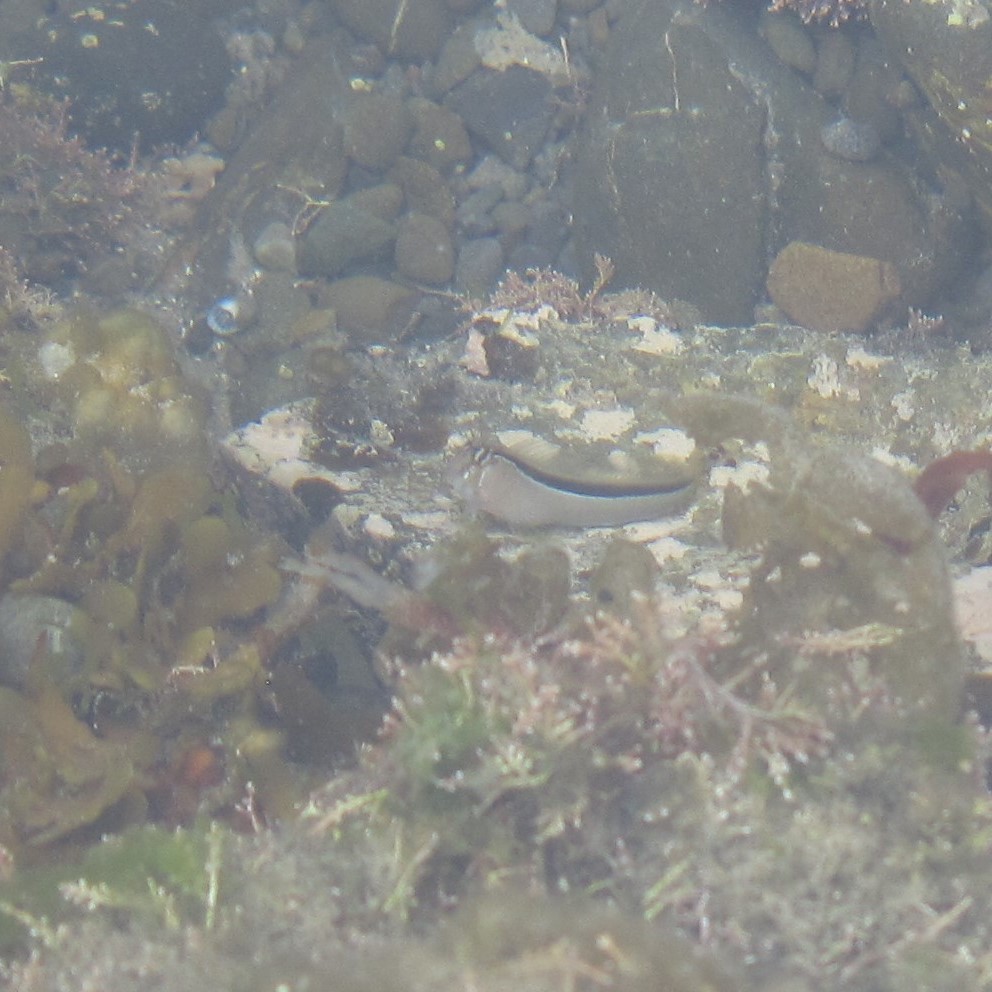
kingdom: Animalia
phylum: Chordata
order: Perciformes
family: Blenniidae
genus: Parablennius
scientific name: Parablennius laticlavius
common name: Crested blenny
